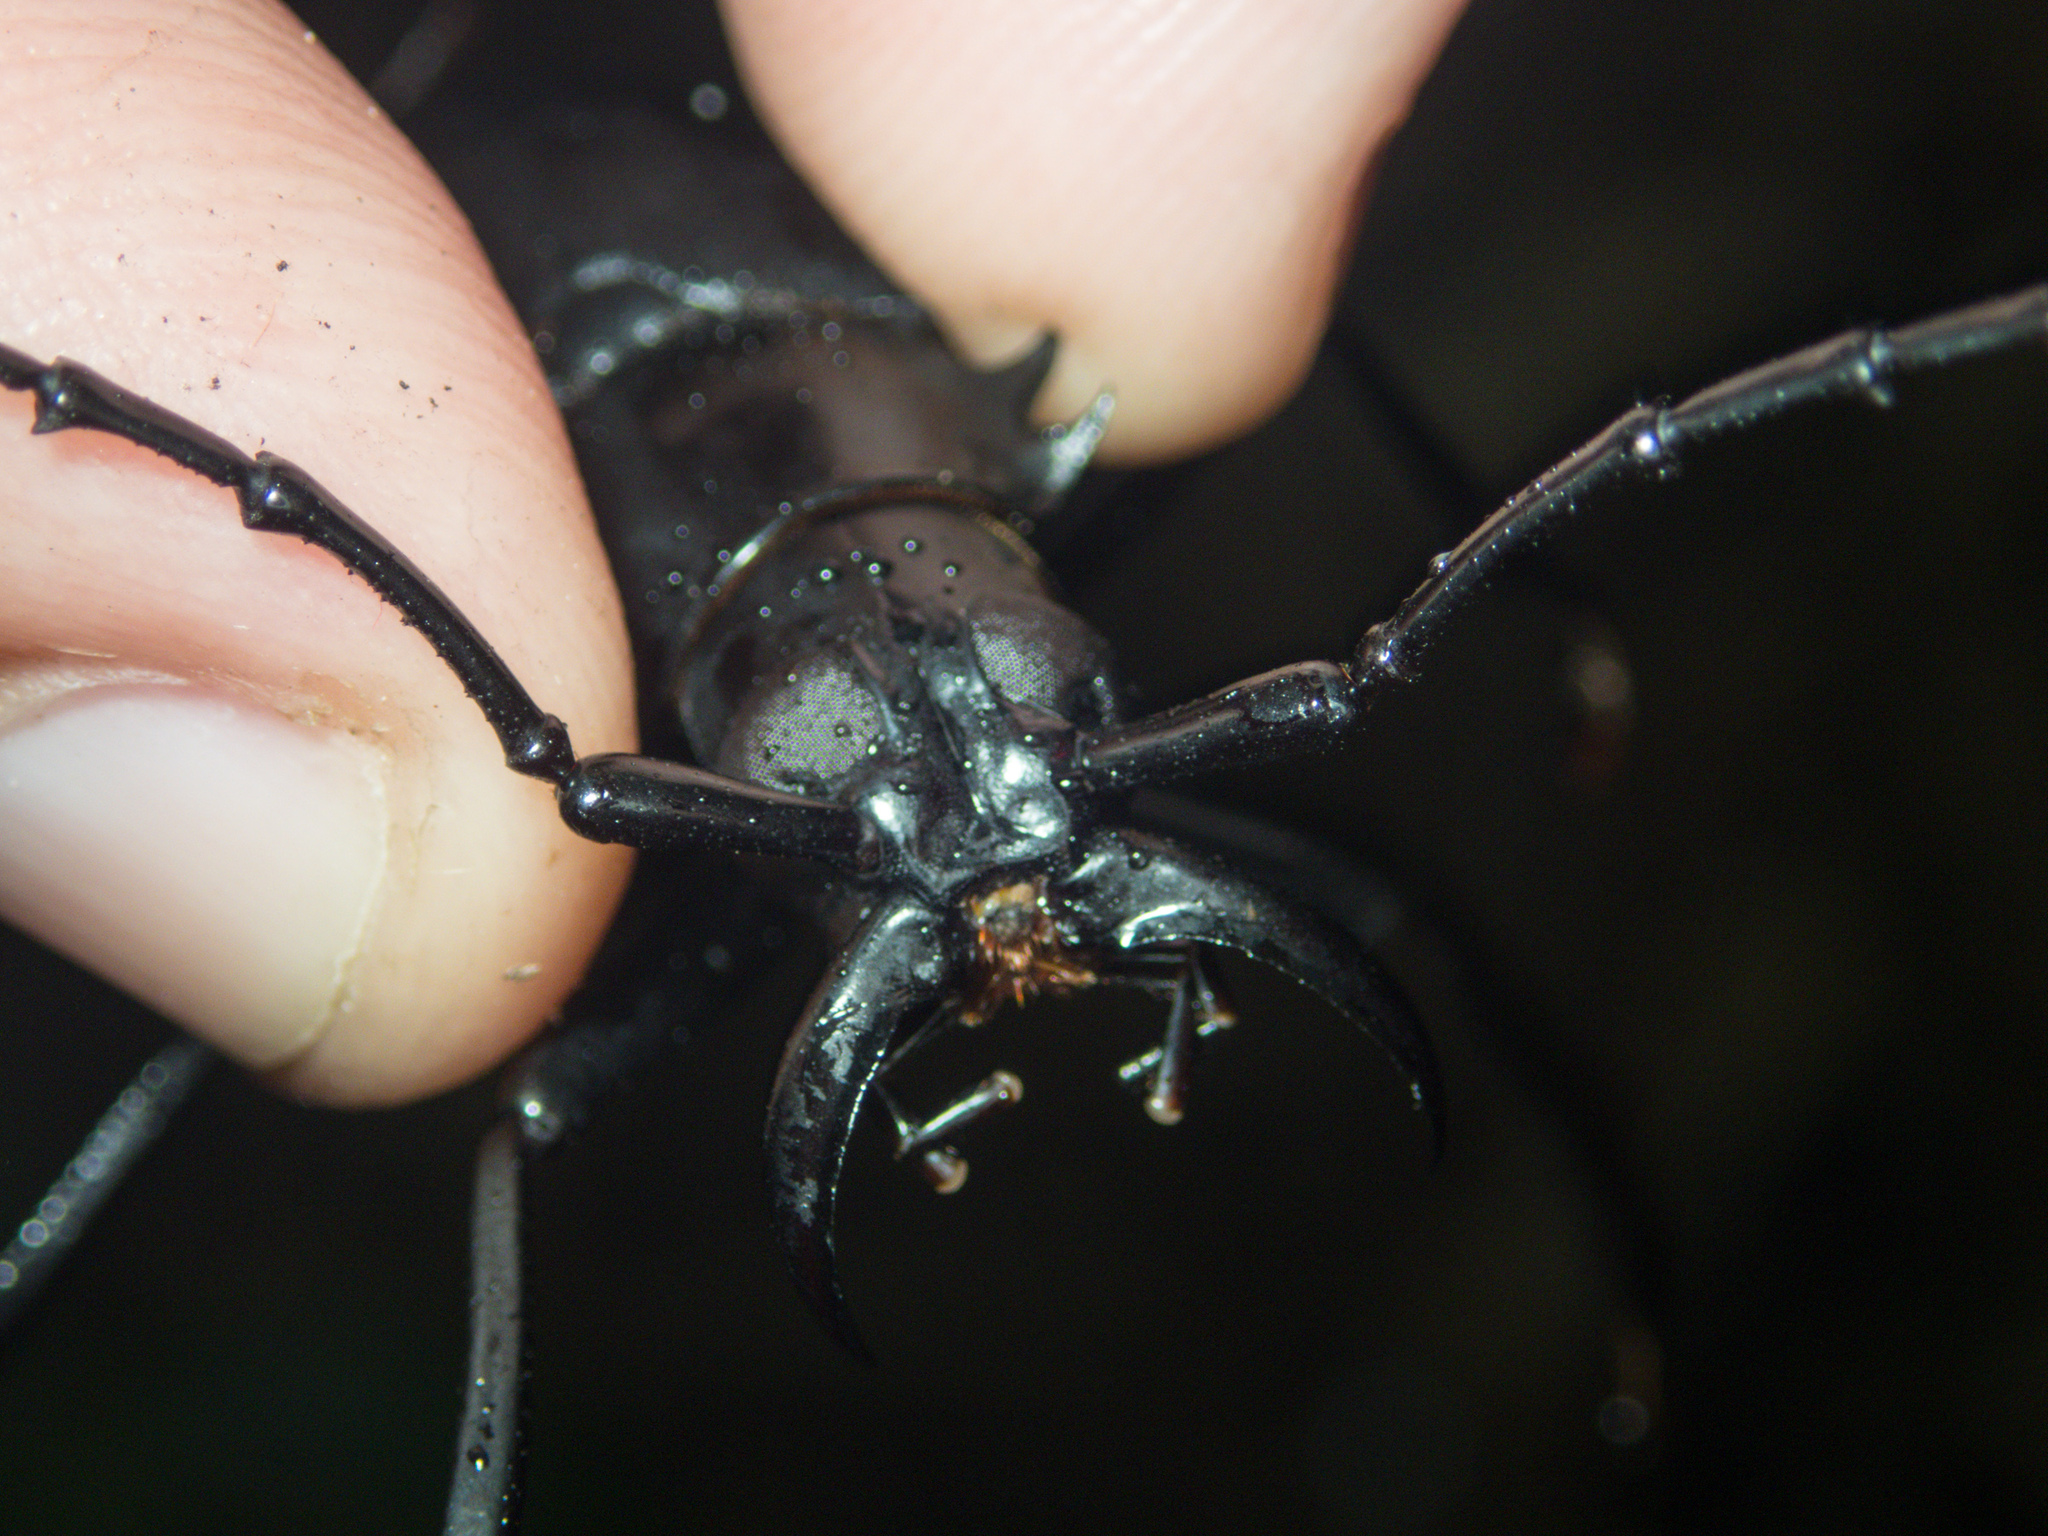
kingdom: Animalia
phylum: Arthropoda
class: Insecta
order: Coleoptera
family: Cerambycidae
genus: Dorysthenes
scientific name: Dorysthenes walkeri
